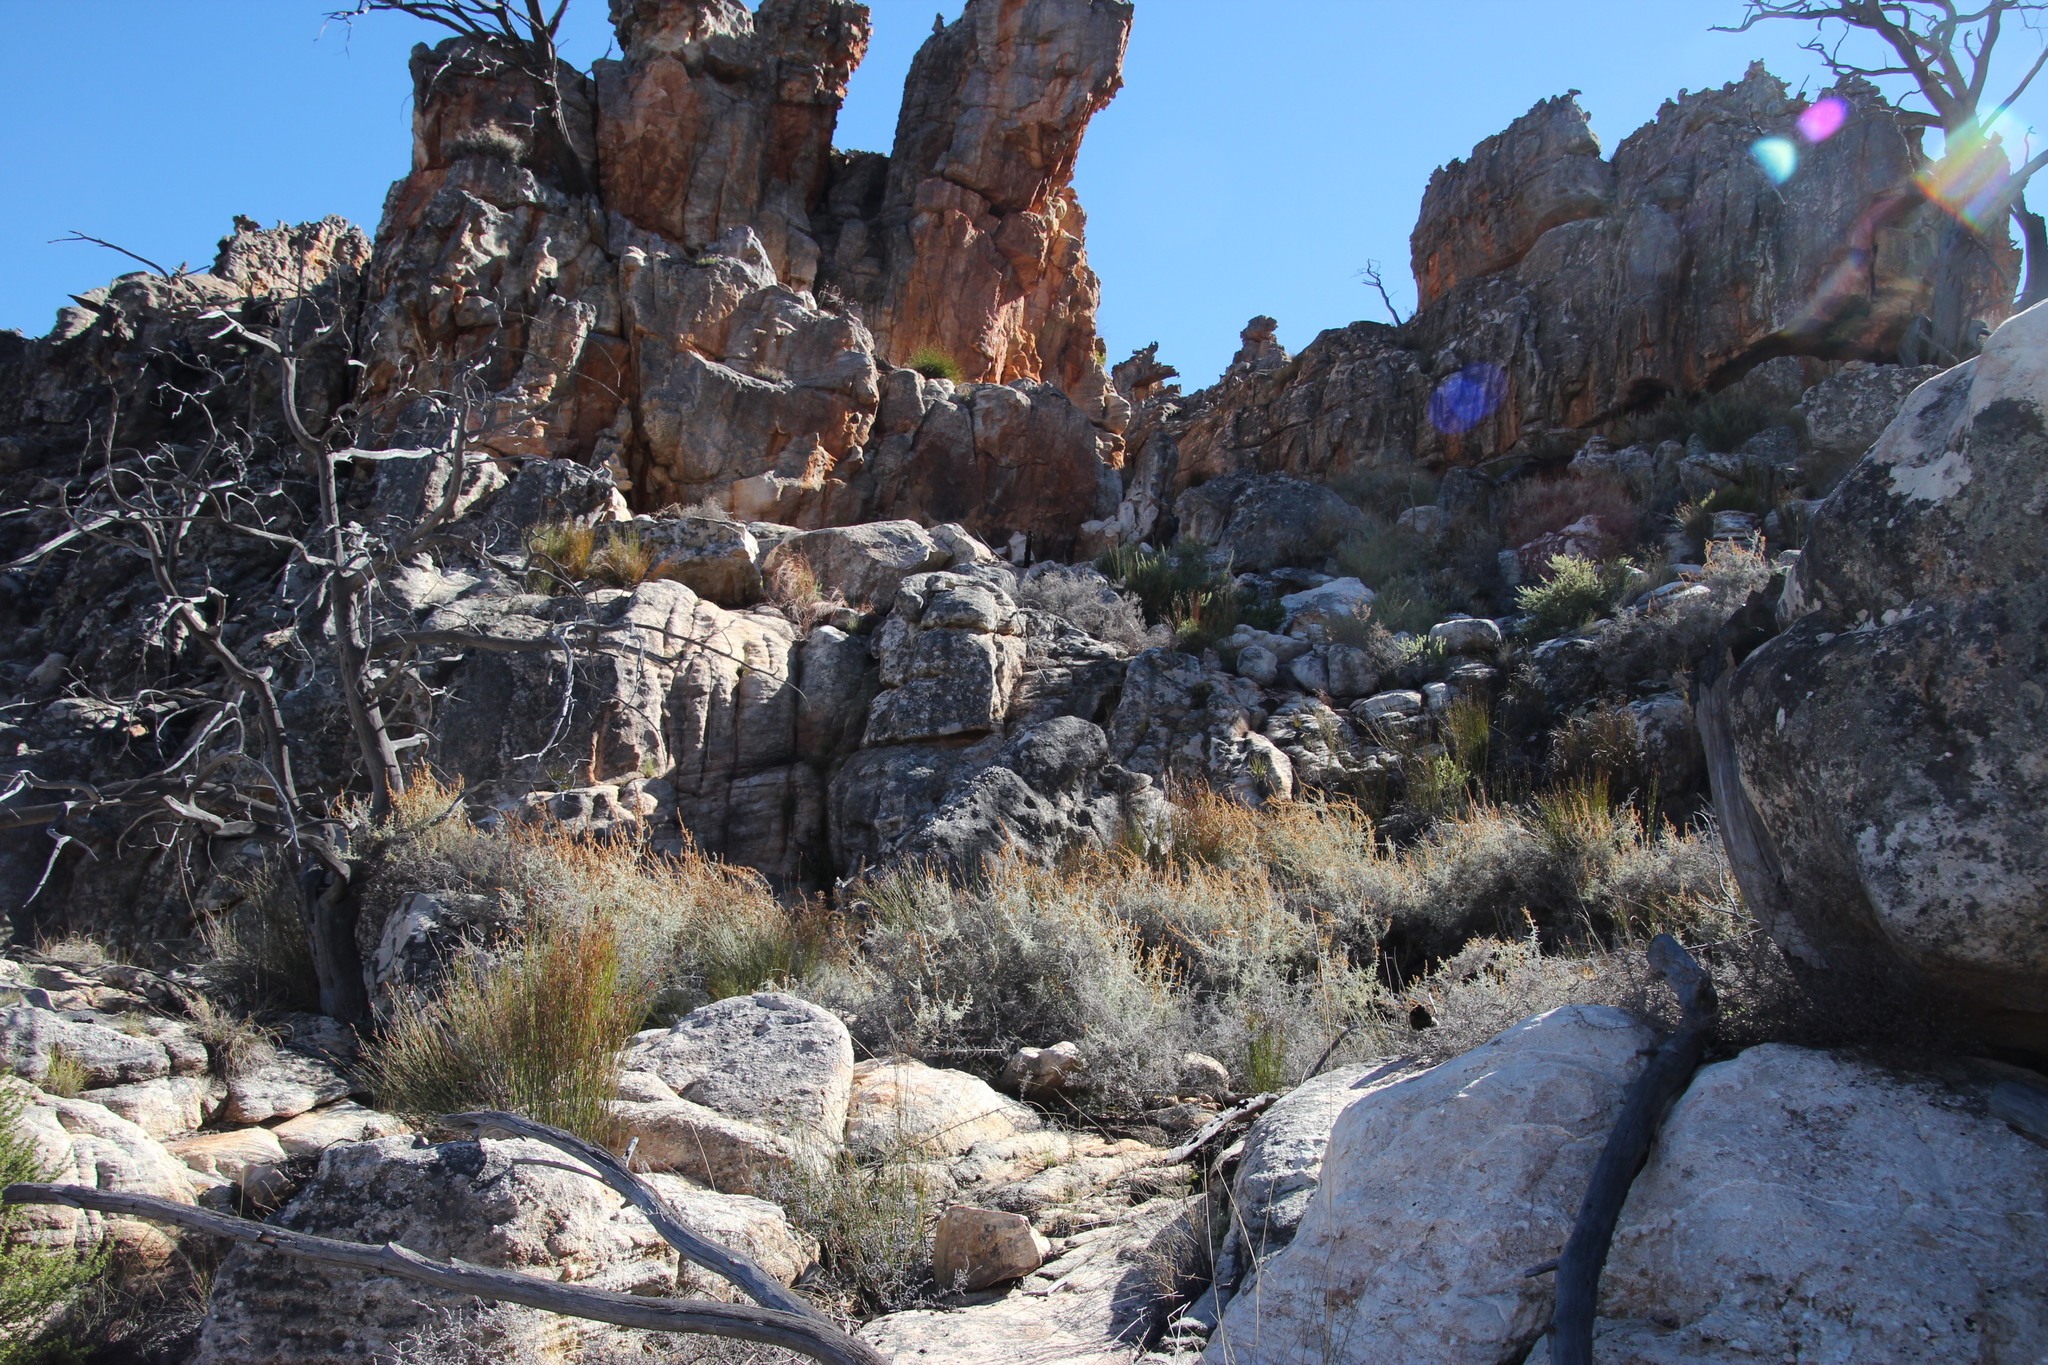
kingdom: Plantae
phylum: Tracheophyta
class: Magnoliopsida
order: Asterales
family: Asteraceae
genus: Seriphium
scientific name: Seriphium plumosum
